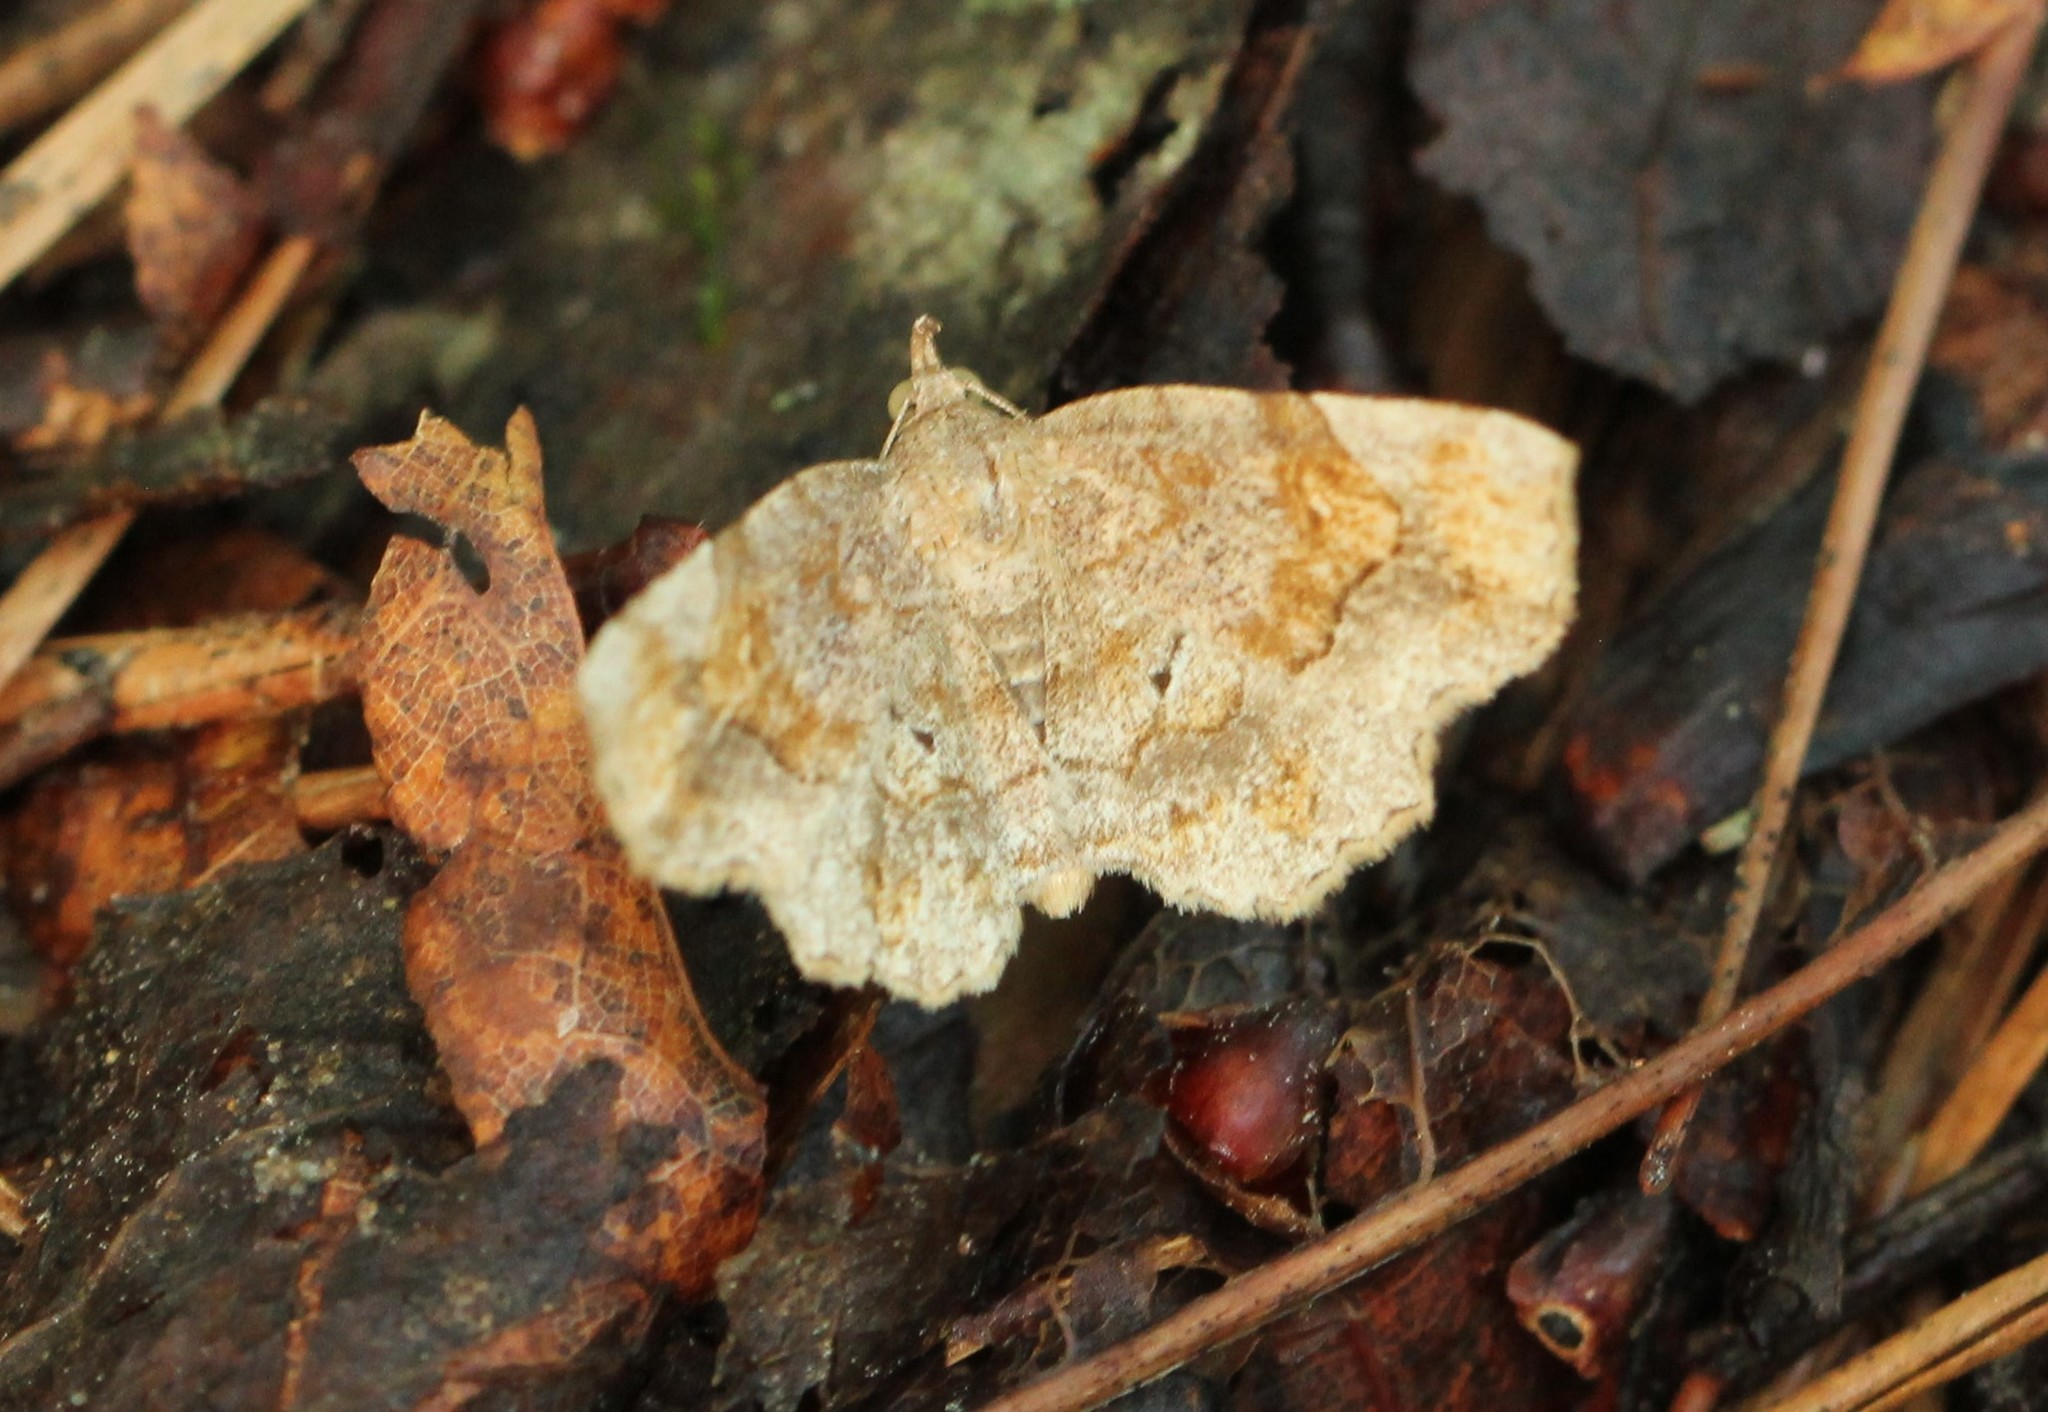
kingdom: Animalia
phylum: Arthropoda
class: Insecta
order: Lepidoptera
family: Erebidae
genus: Pangrapta
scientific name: Pangrapta decoralis
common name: Decorated owlet
